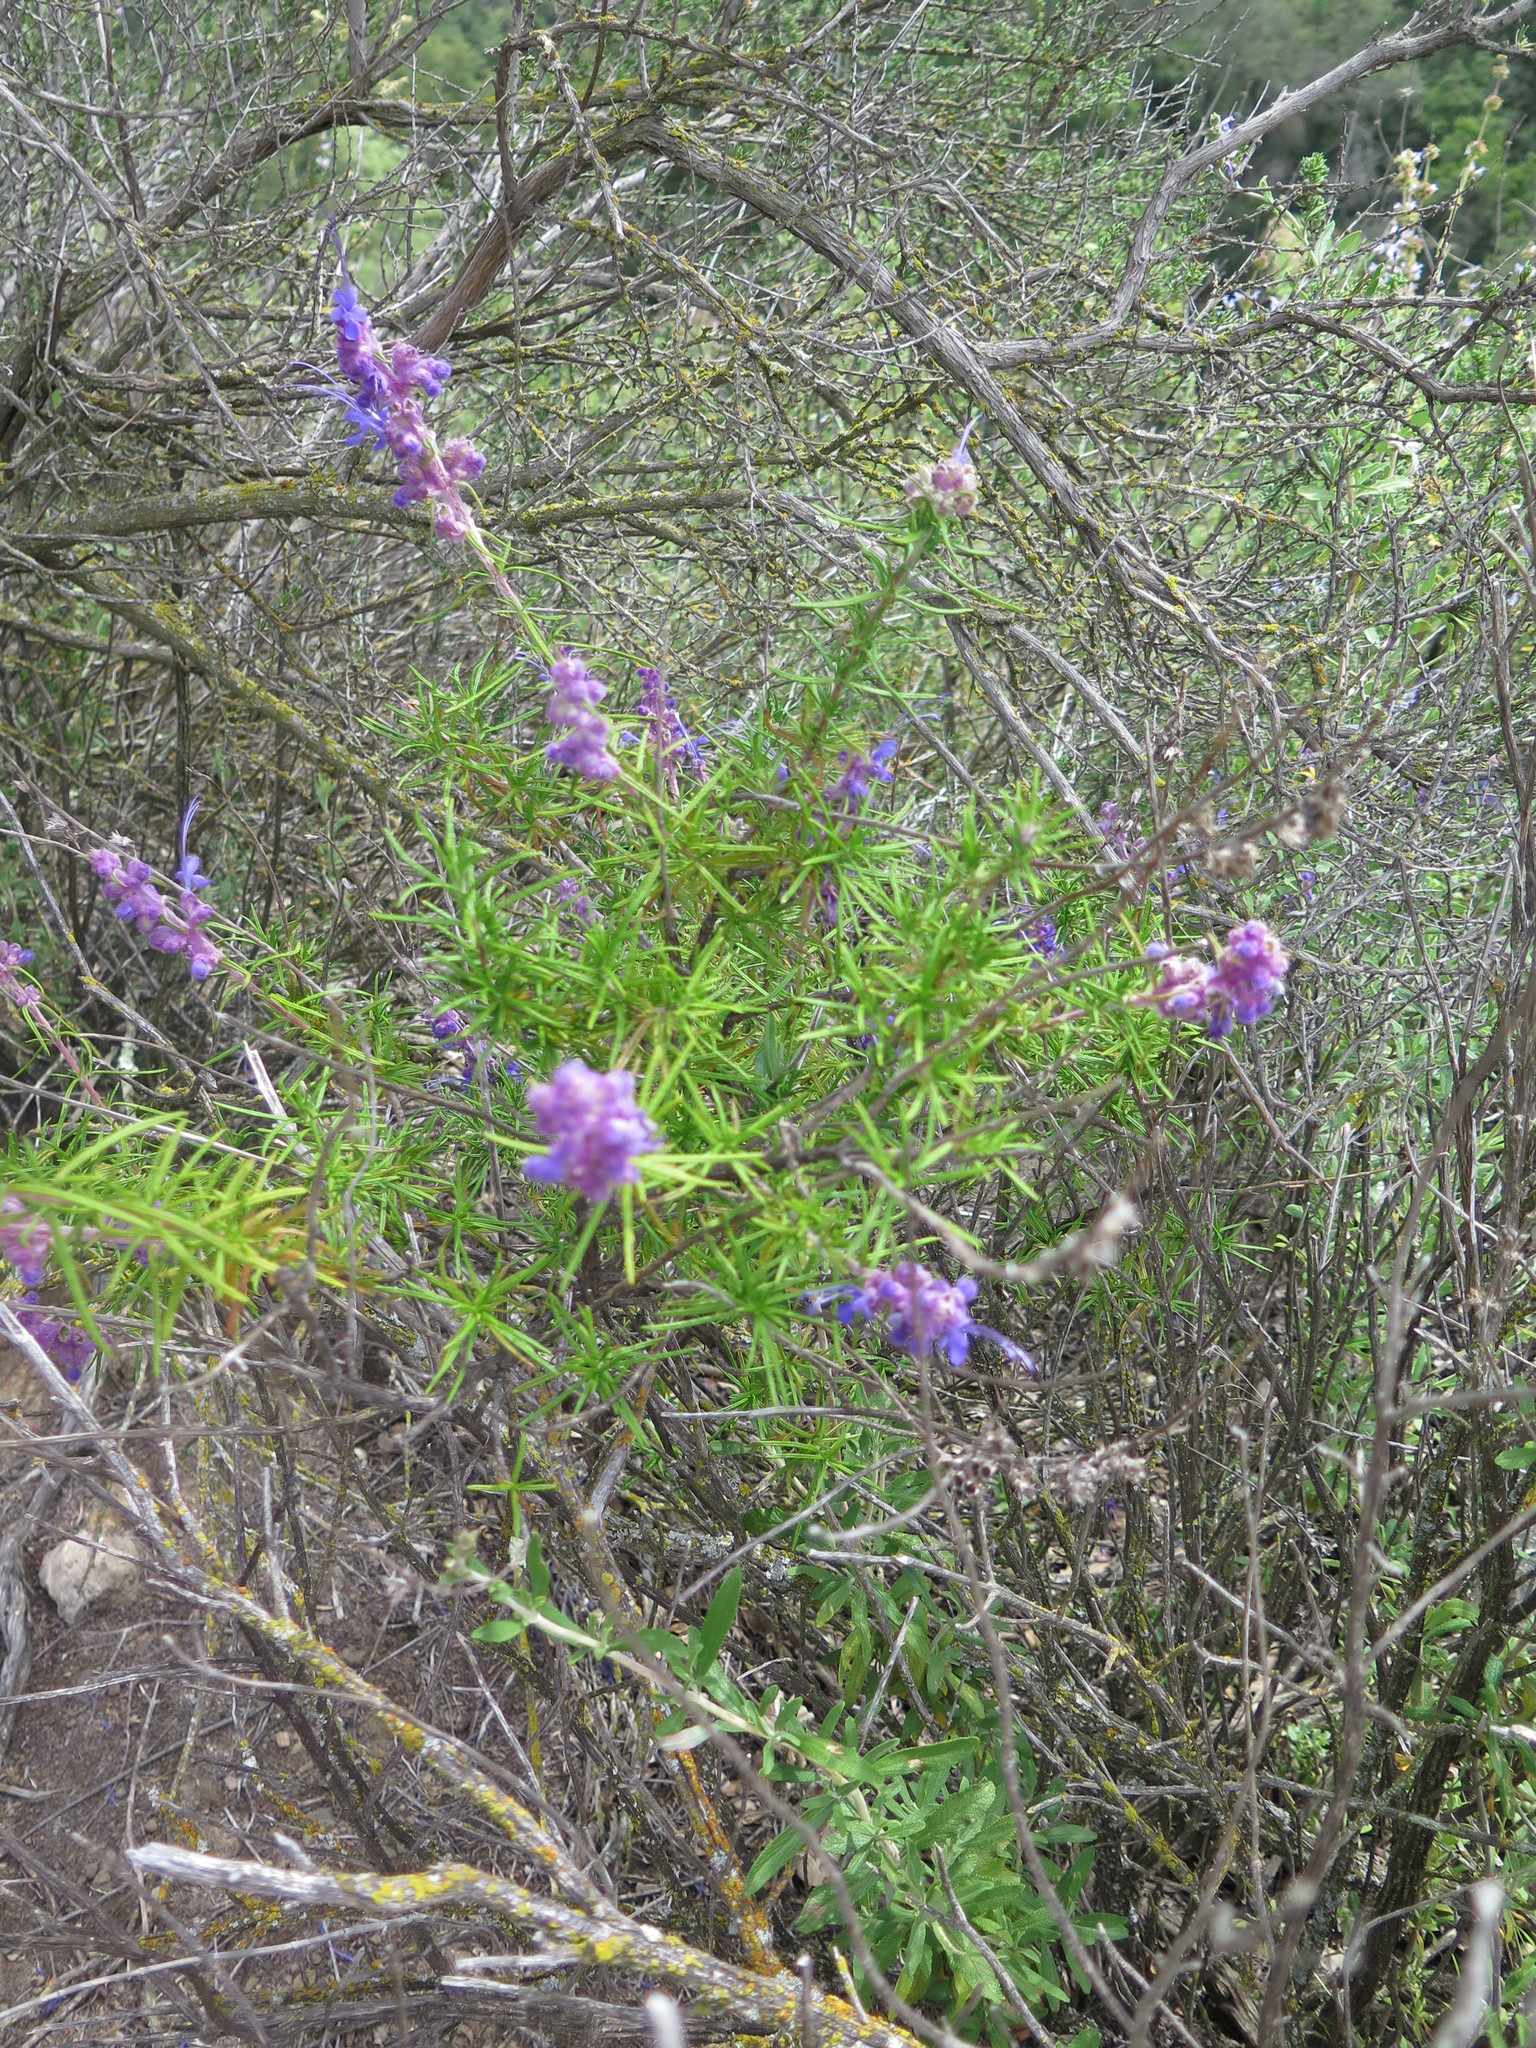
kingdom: Plantae
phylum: Tracheophyta
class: Magnoliopsida
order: Lamiales
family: Lamiaceae
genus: Trichostema
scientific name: Trichostema lanatum
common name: Woolly bluecurls
